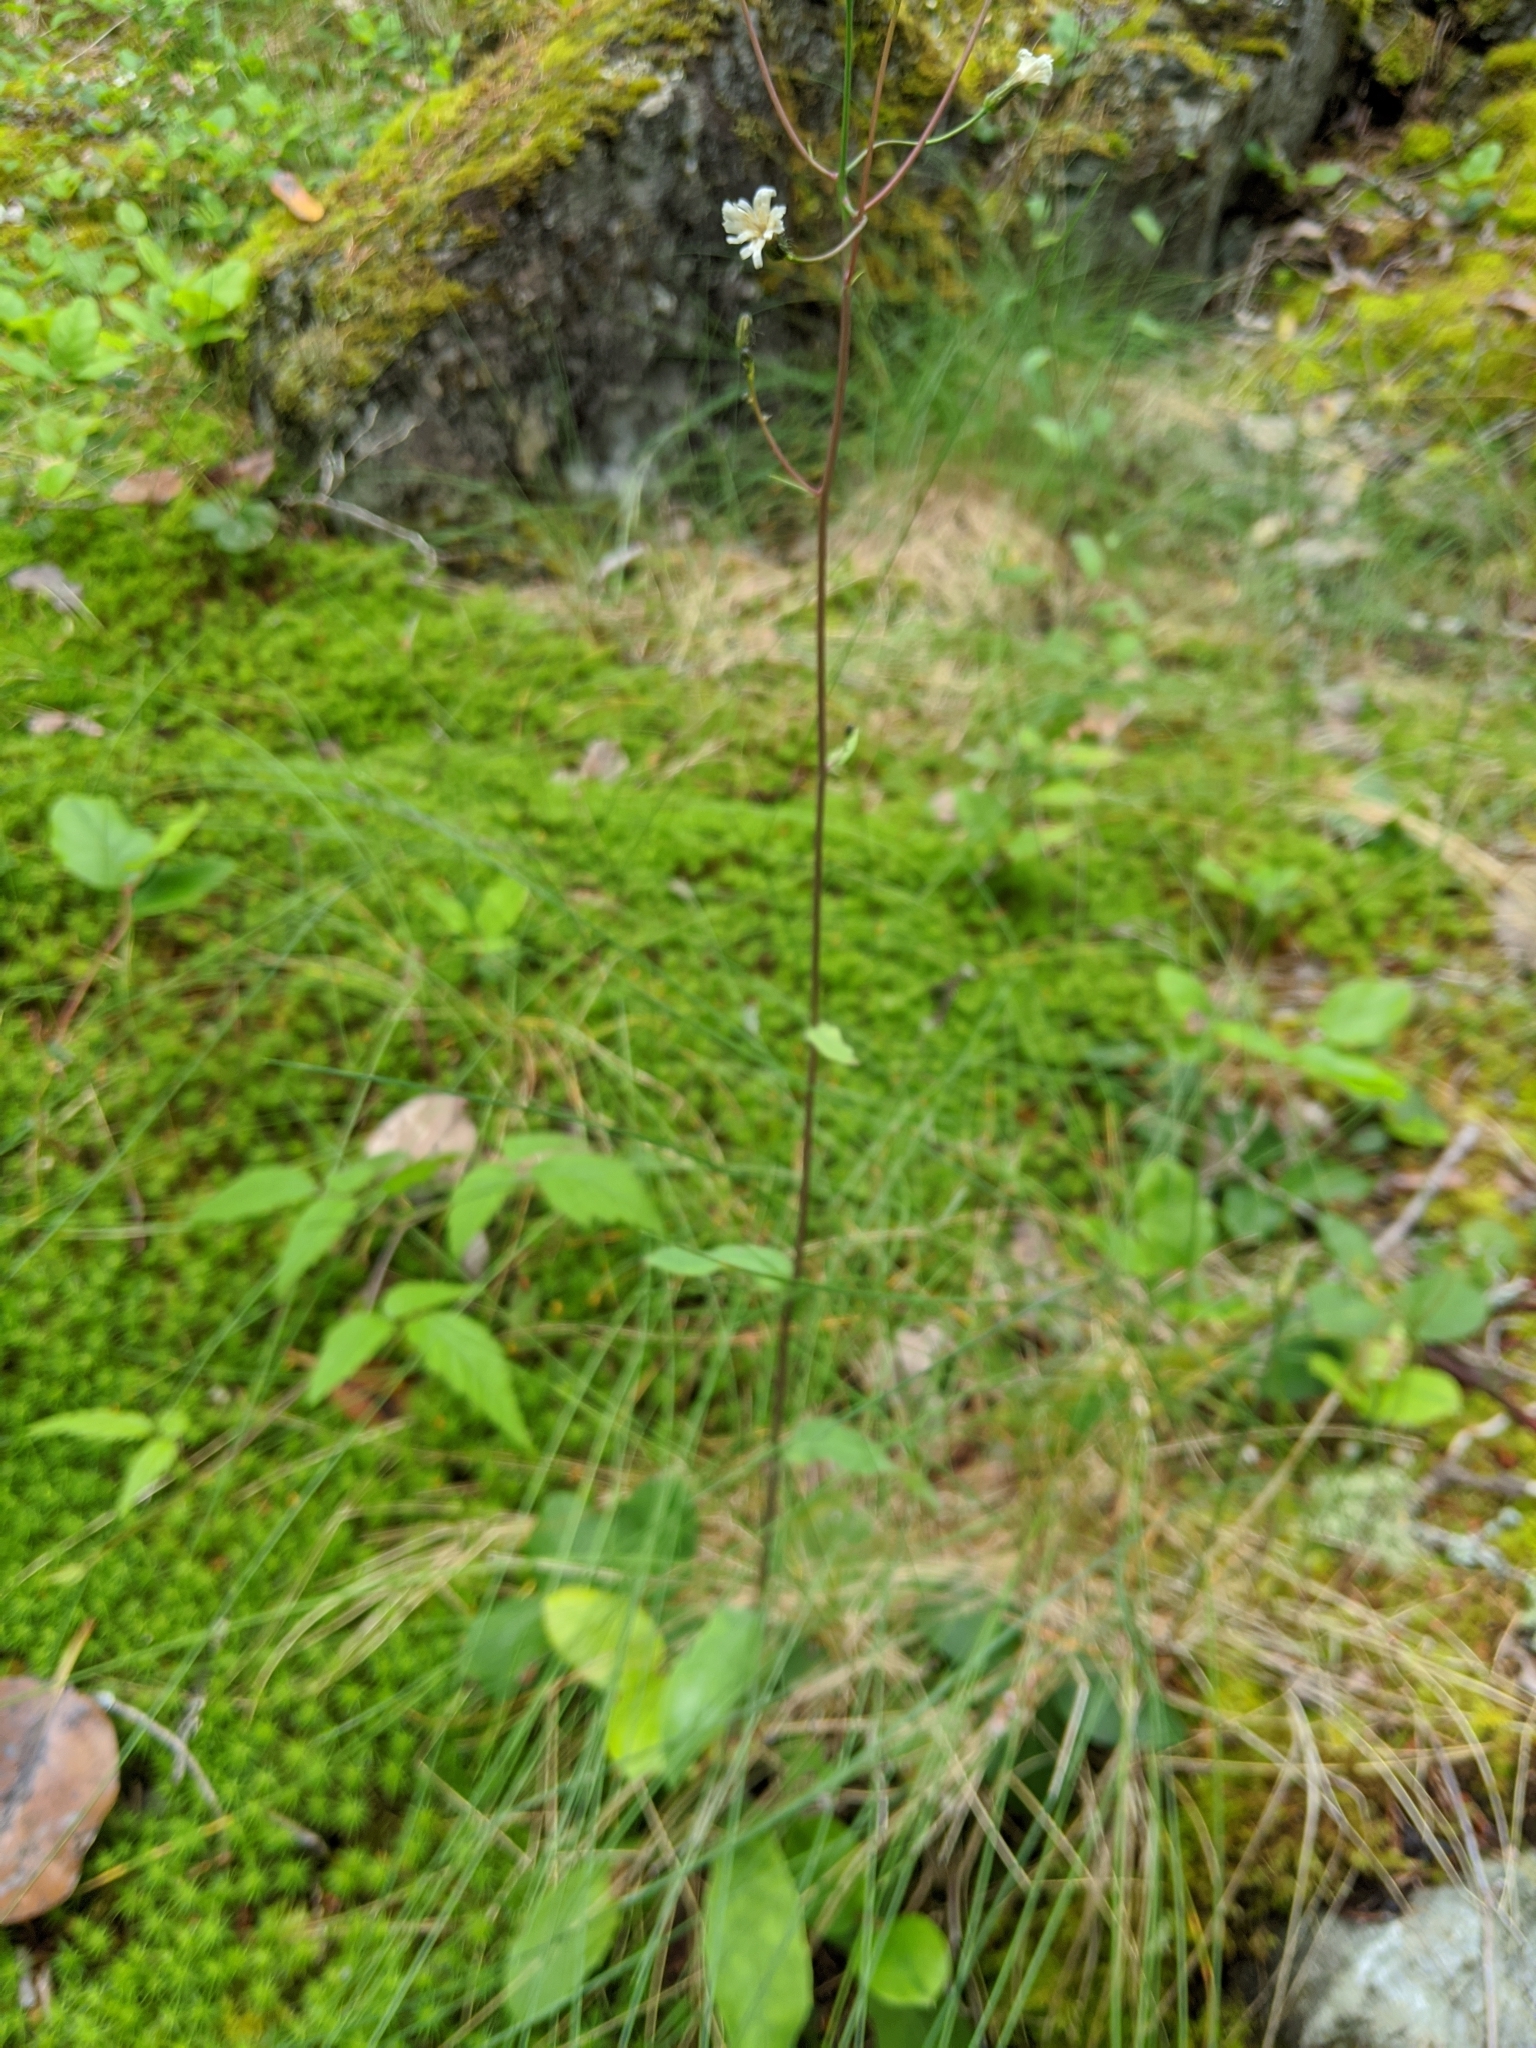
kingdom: Plantae
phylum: Tracheophyta
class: Magnoliopsida
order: Asterales
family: Asteraceae
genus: Hieracium
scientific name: Hieracium albiflorum
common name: White hawkweed
